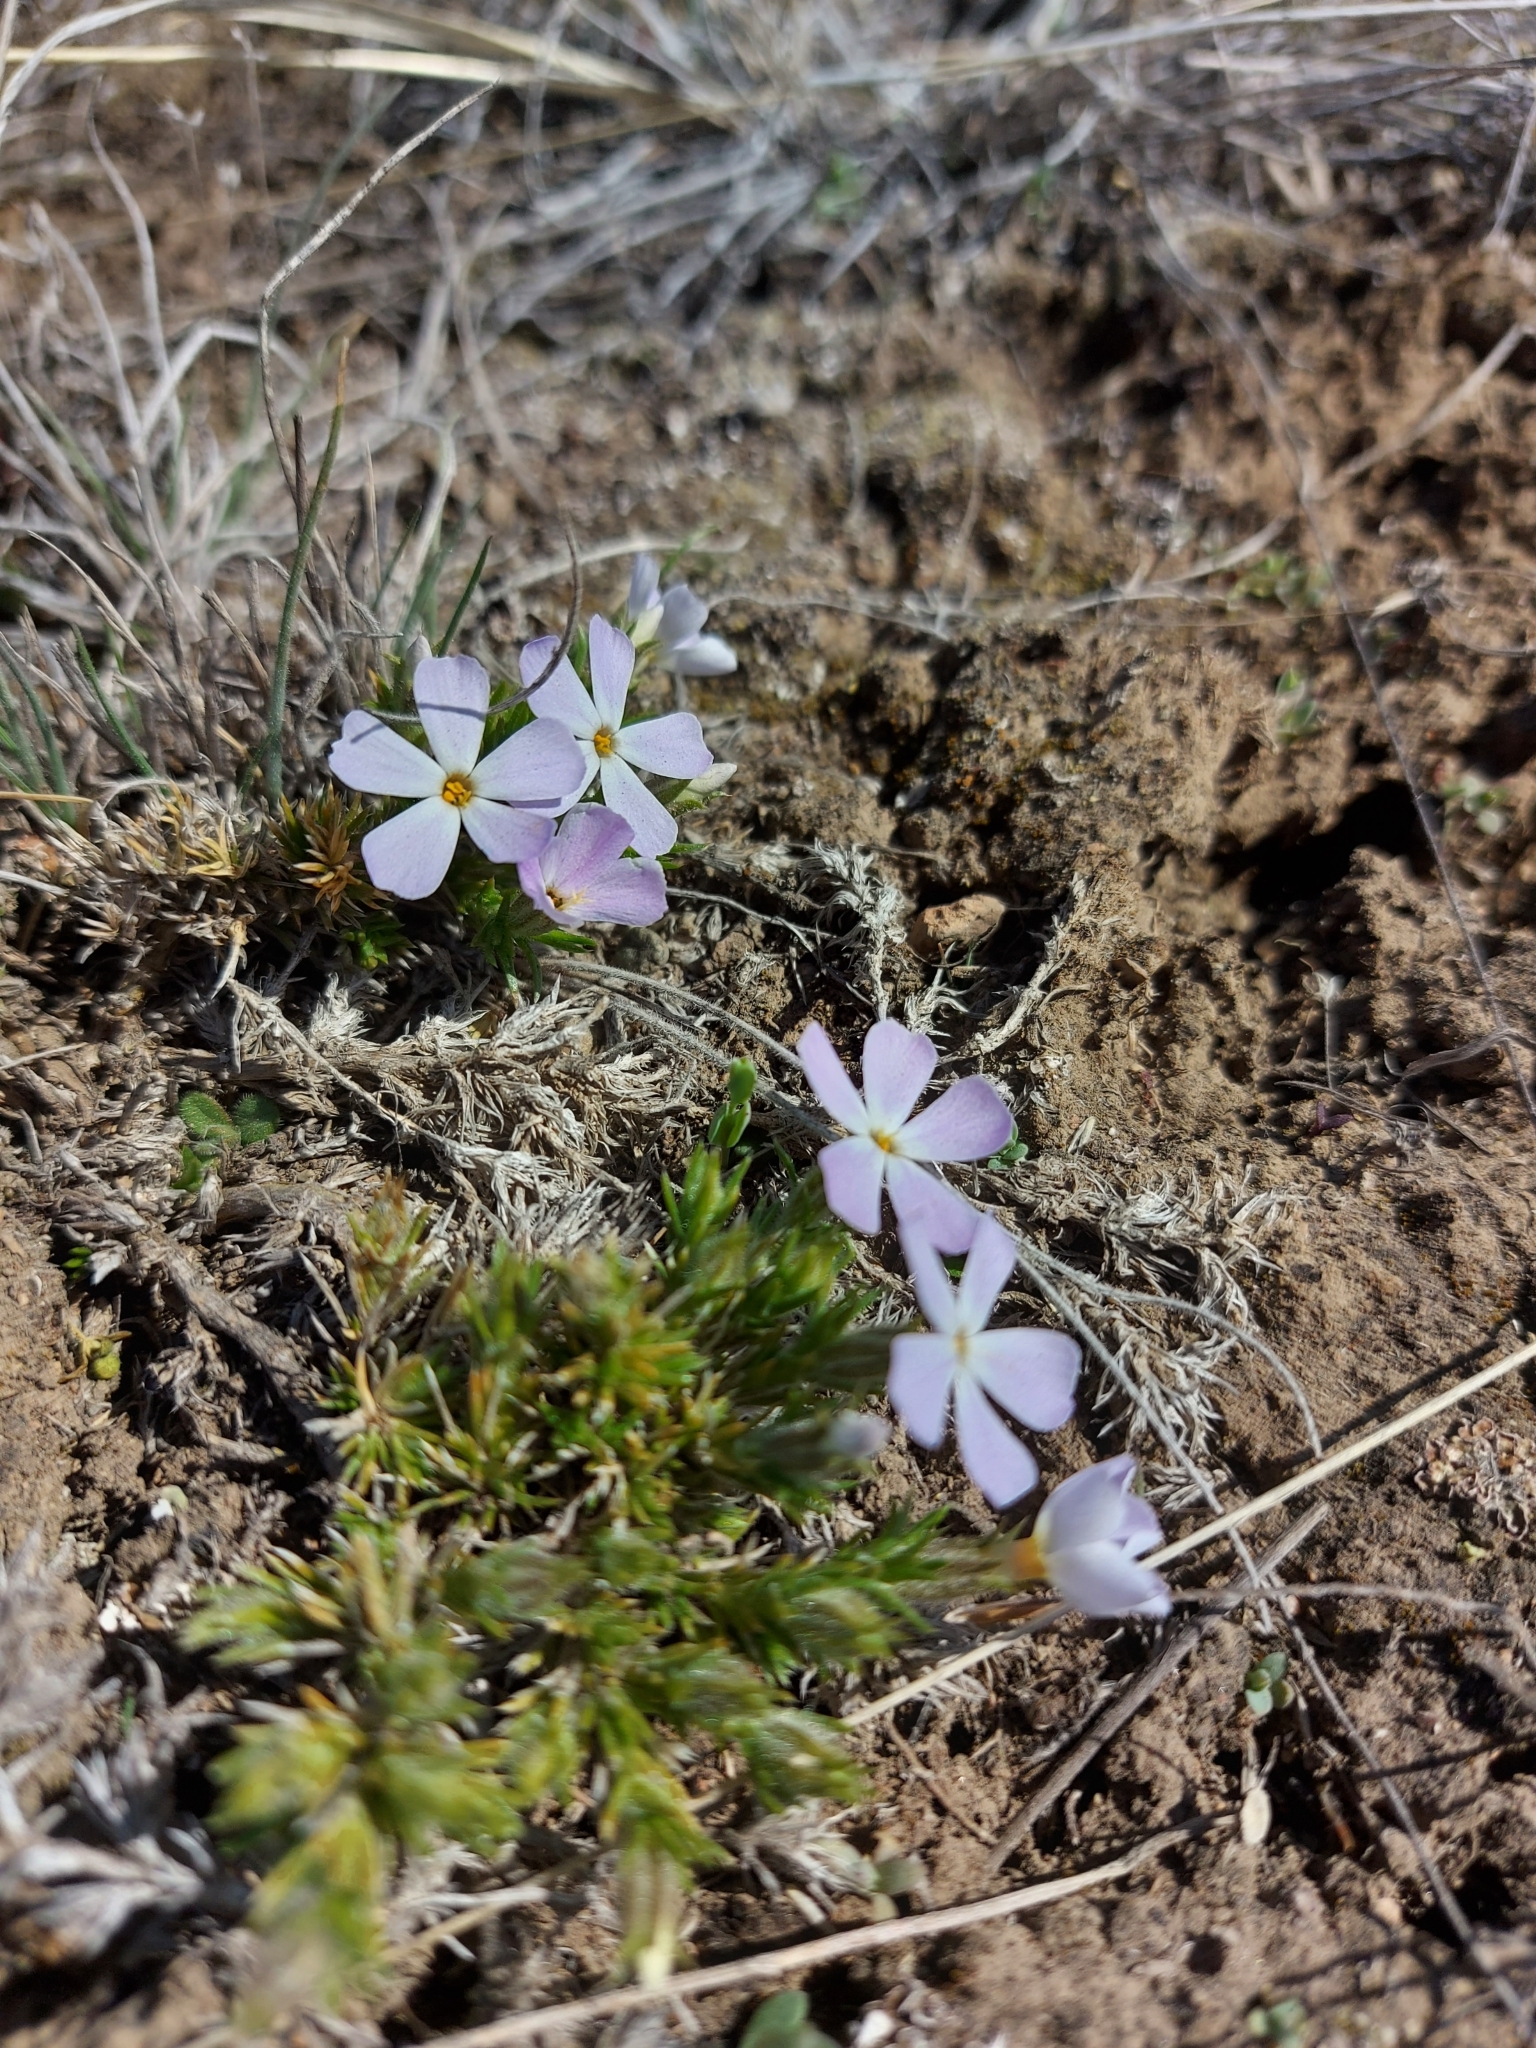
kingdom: Plantae
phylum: Tracheophyta
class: Magnoliopsida
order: Ericales
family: Polemoniaceae
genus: Phlox
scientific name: Phlox caespitosa
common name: Cushion phlox
